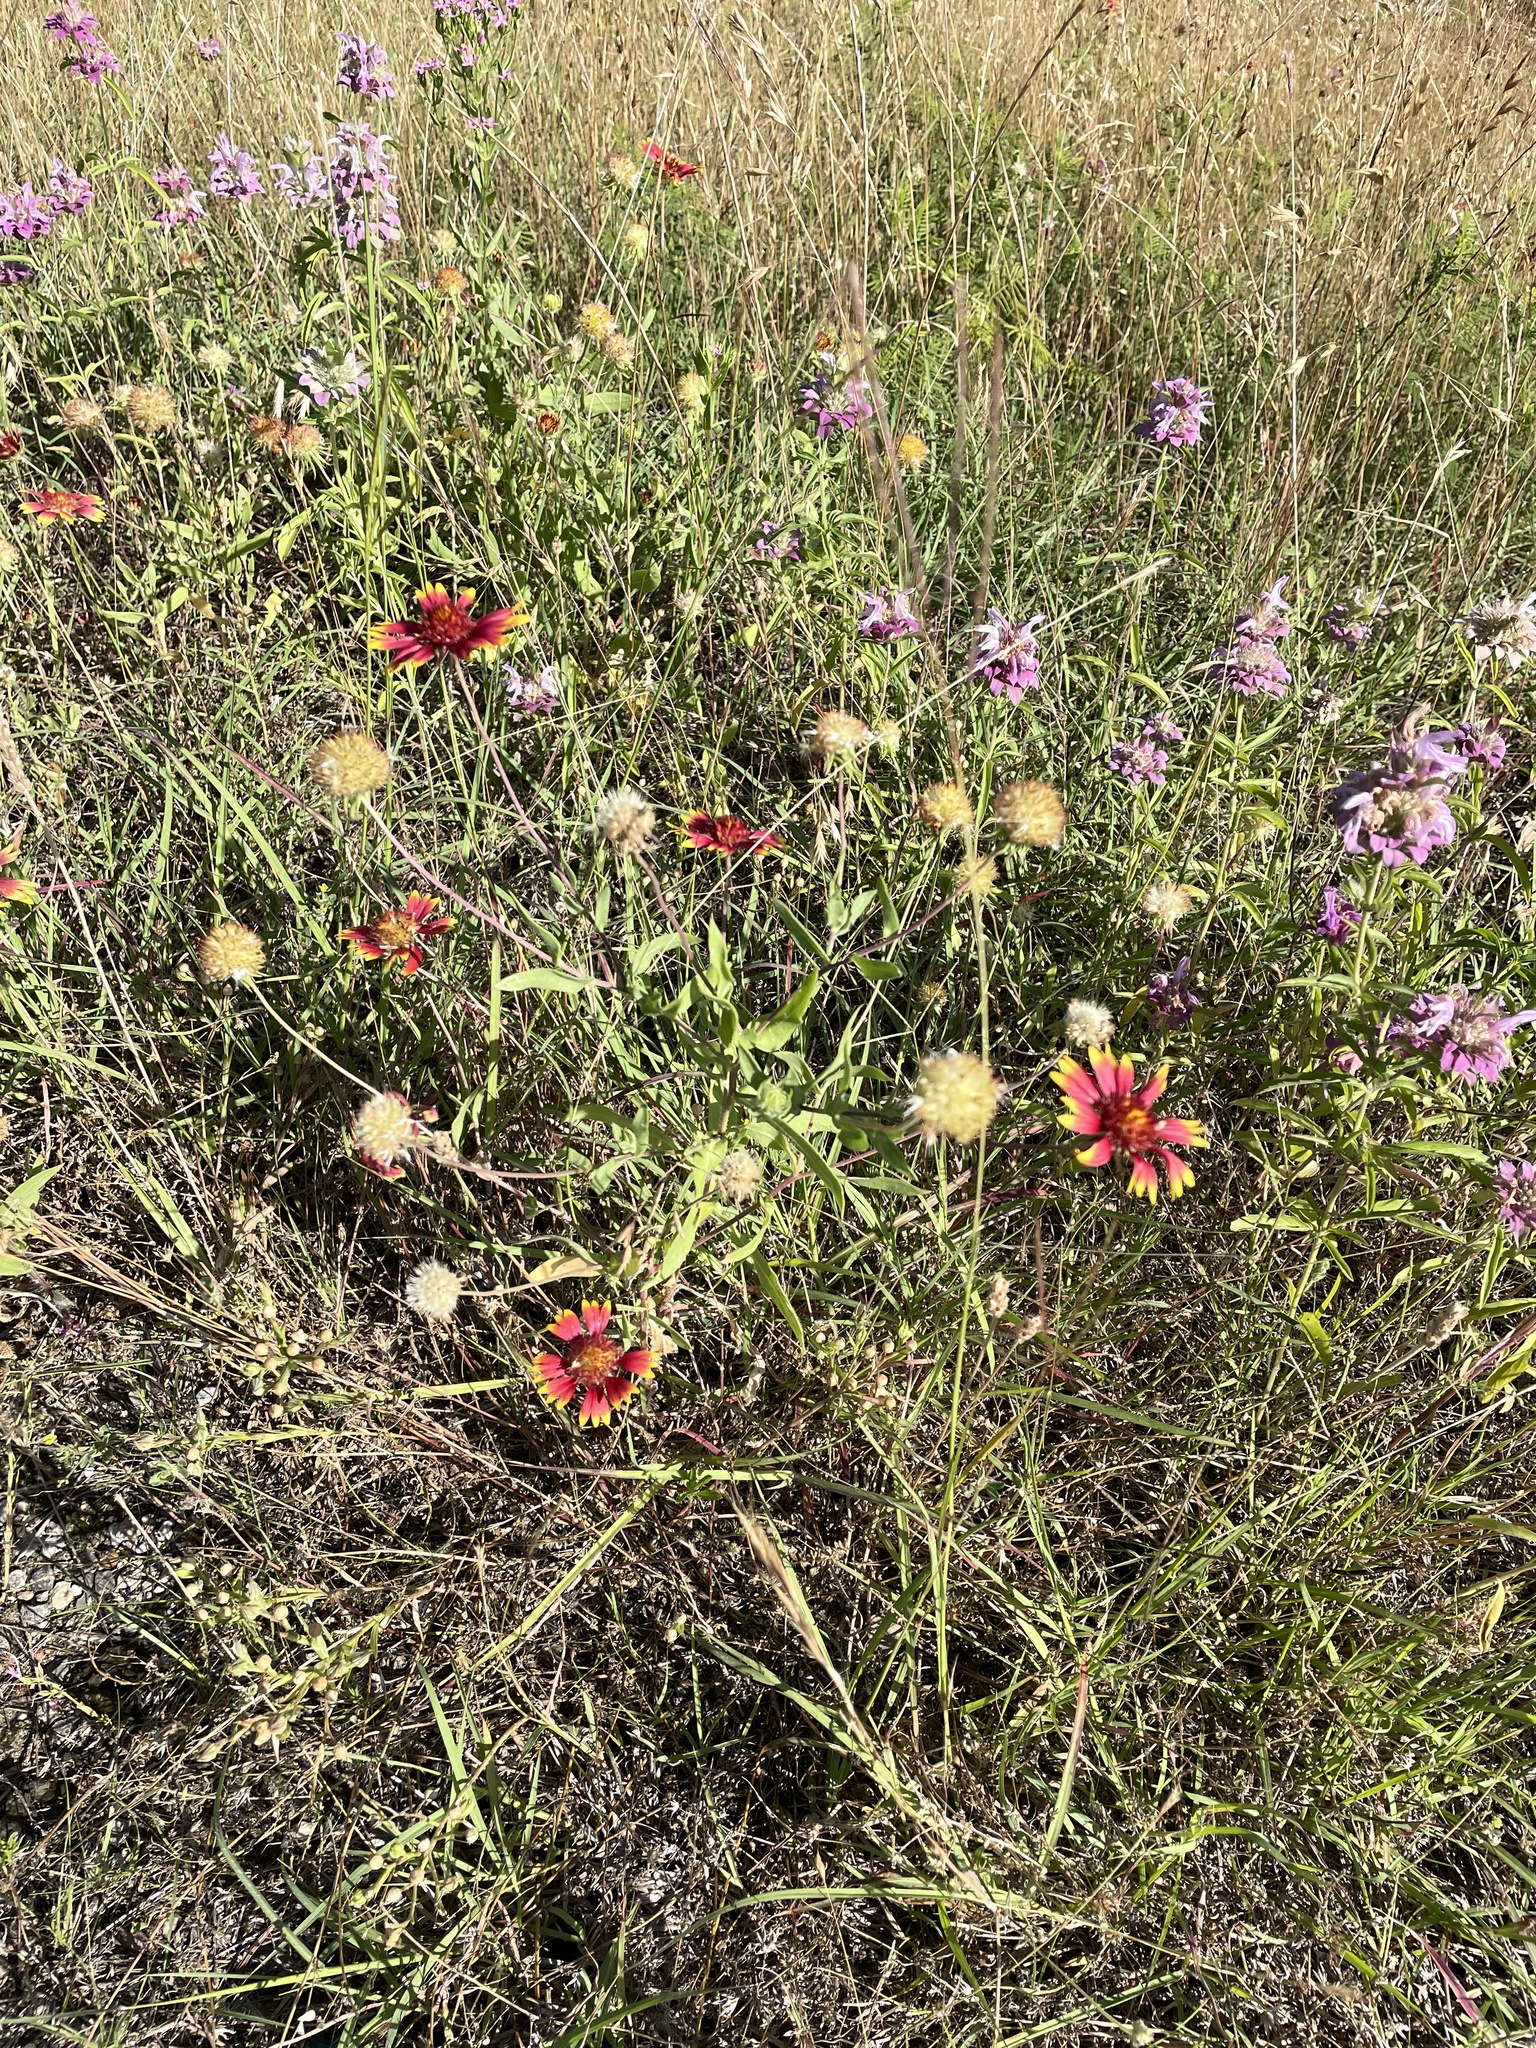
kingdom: Plantae
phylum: Tracheophyta
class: Magnoliopsida
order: Asterales
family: Asteraceae
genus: Gaillardia
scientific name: Gaillardia pulchella
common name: Firewheel
